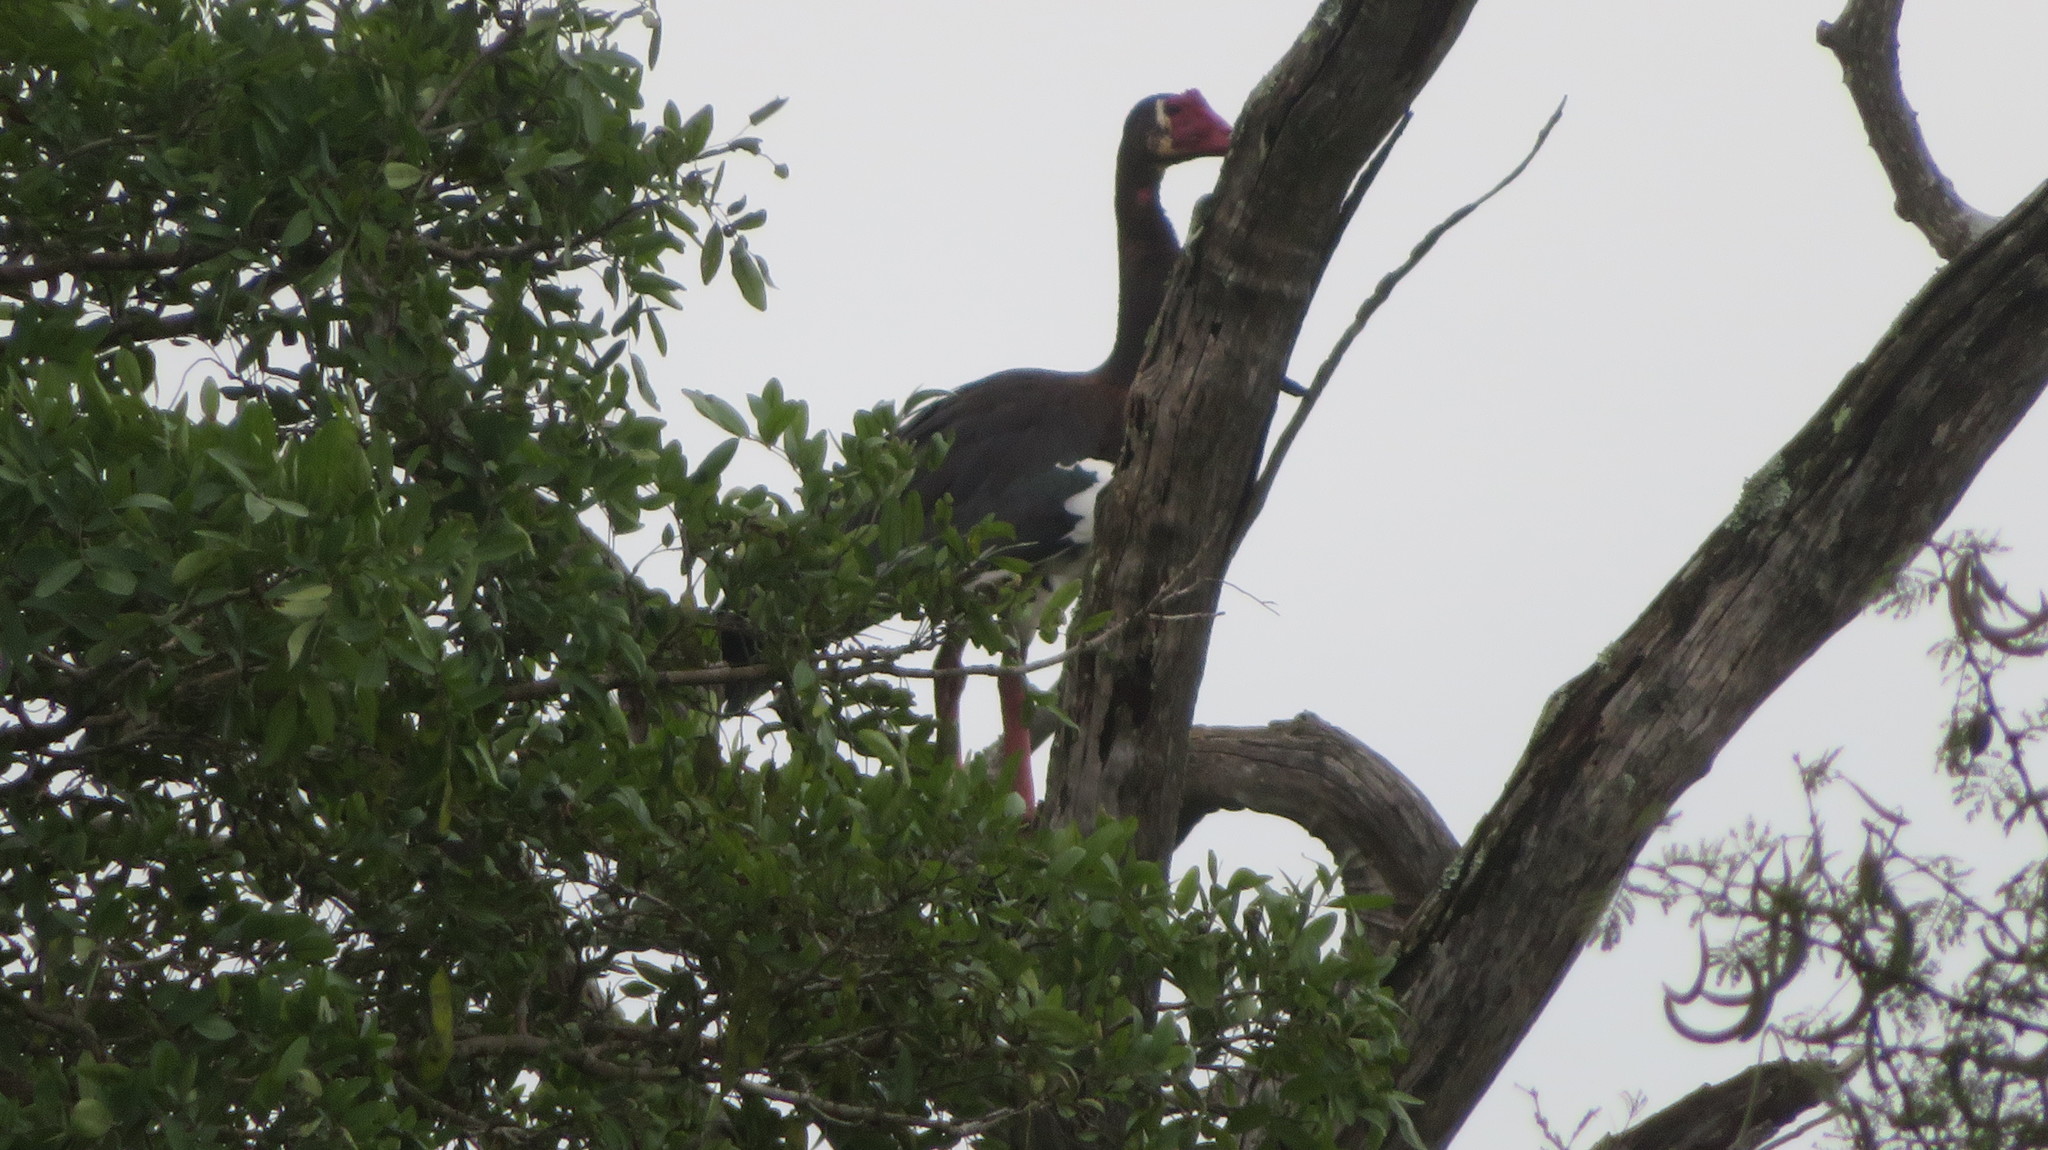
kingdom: Animalia
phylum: Chordata
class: Aves
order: Anseriformes
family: Anatidae
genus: Plectropterus
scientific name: Plectropterus gambensis
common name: Spur-winged goose
